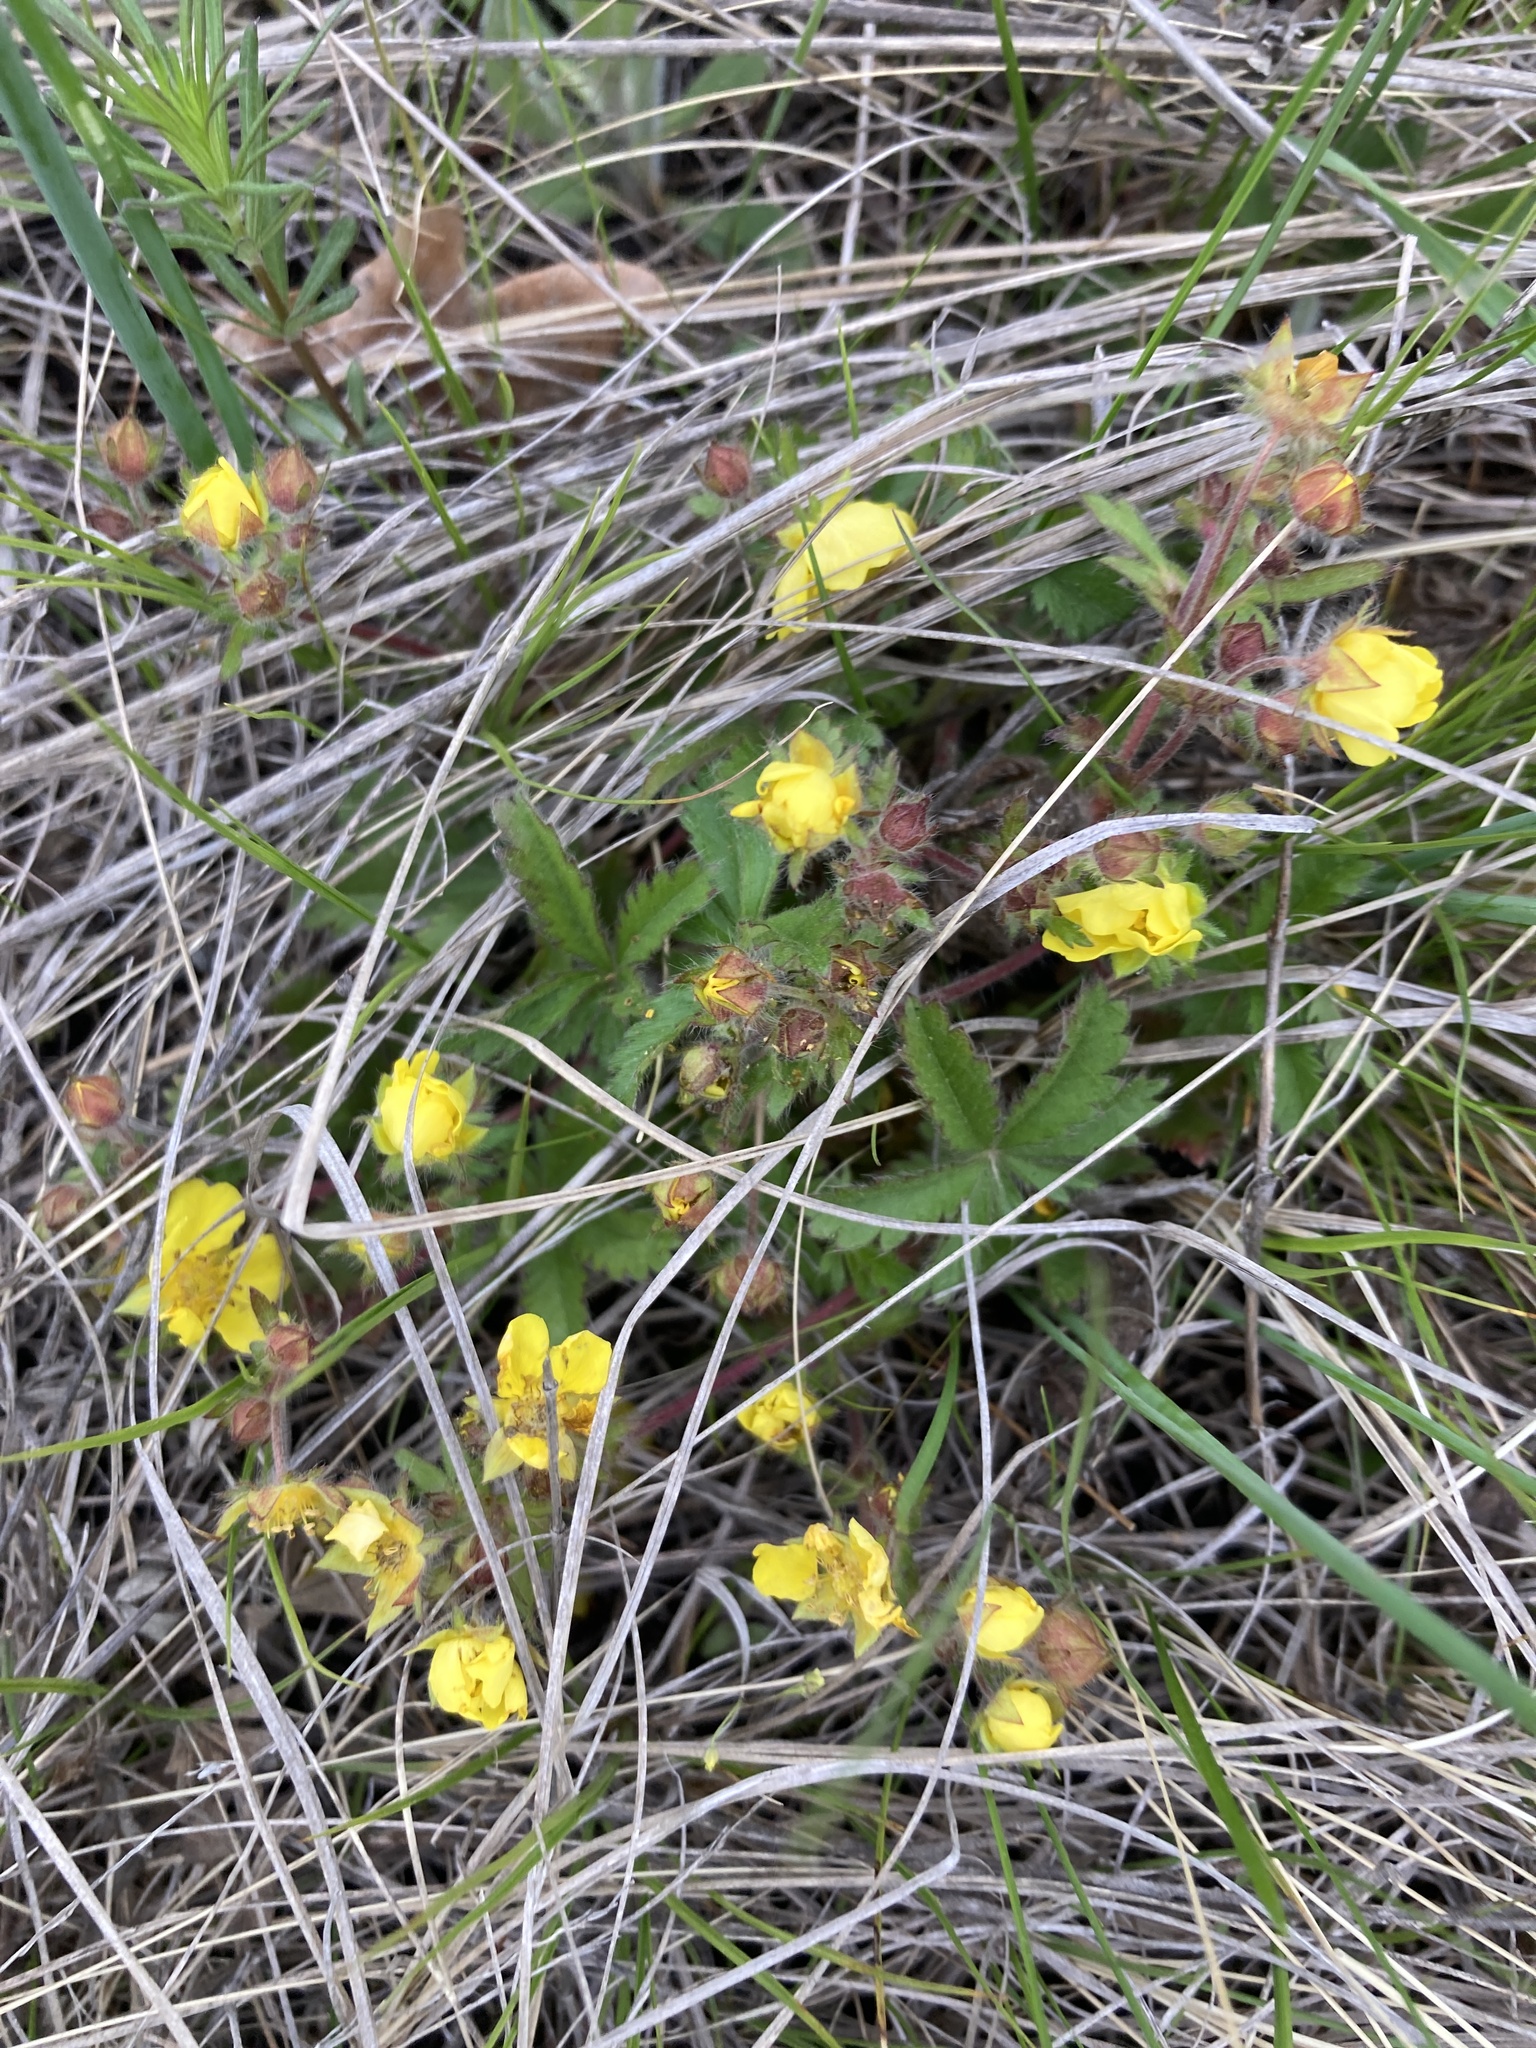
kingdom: Plantae
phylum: Tracheophyta
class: Magnoliopsida
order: Rosales
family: Rosaceae
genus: Potentilla
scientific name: Potentilla humifusa
